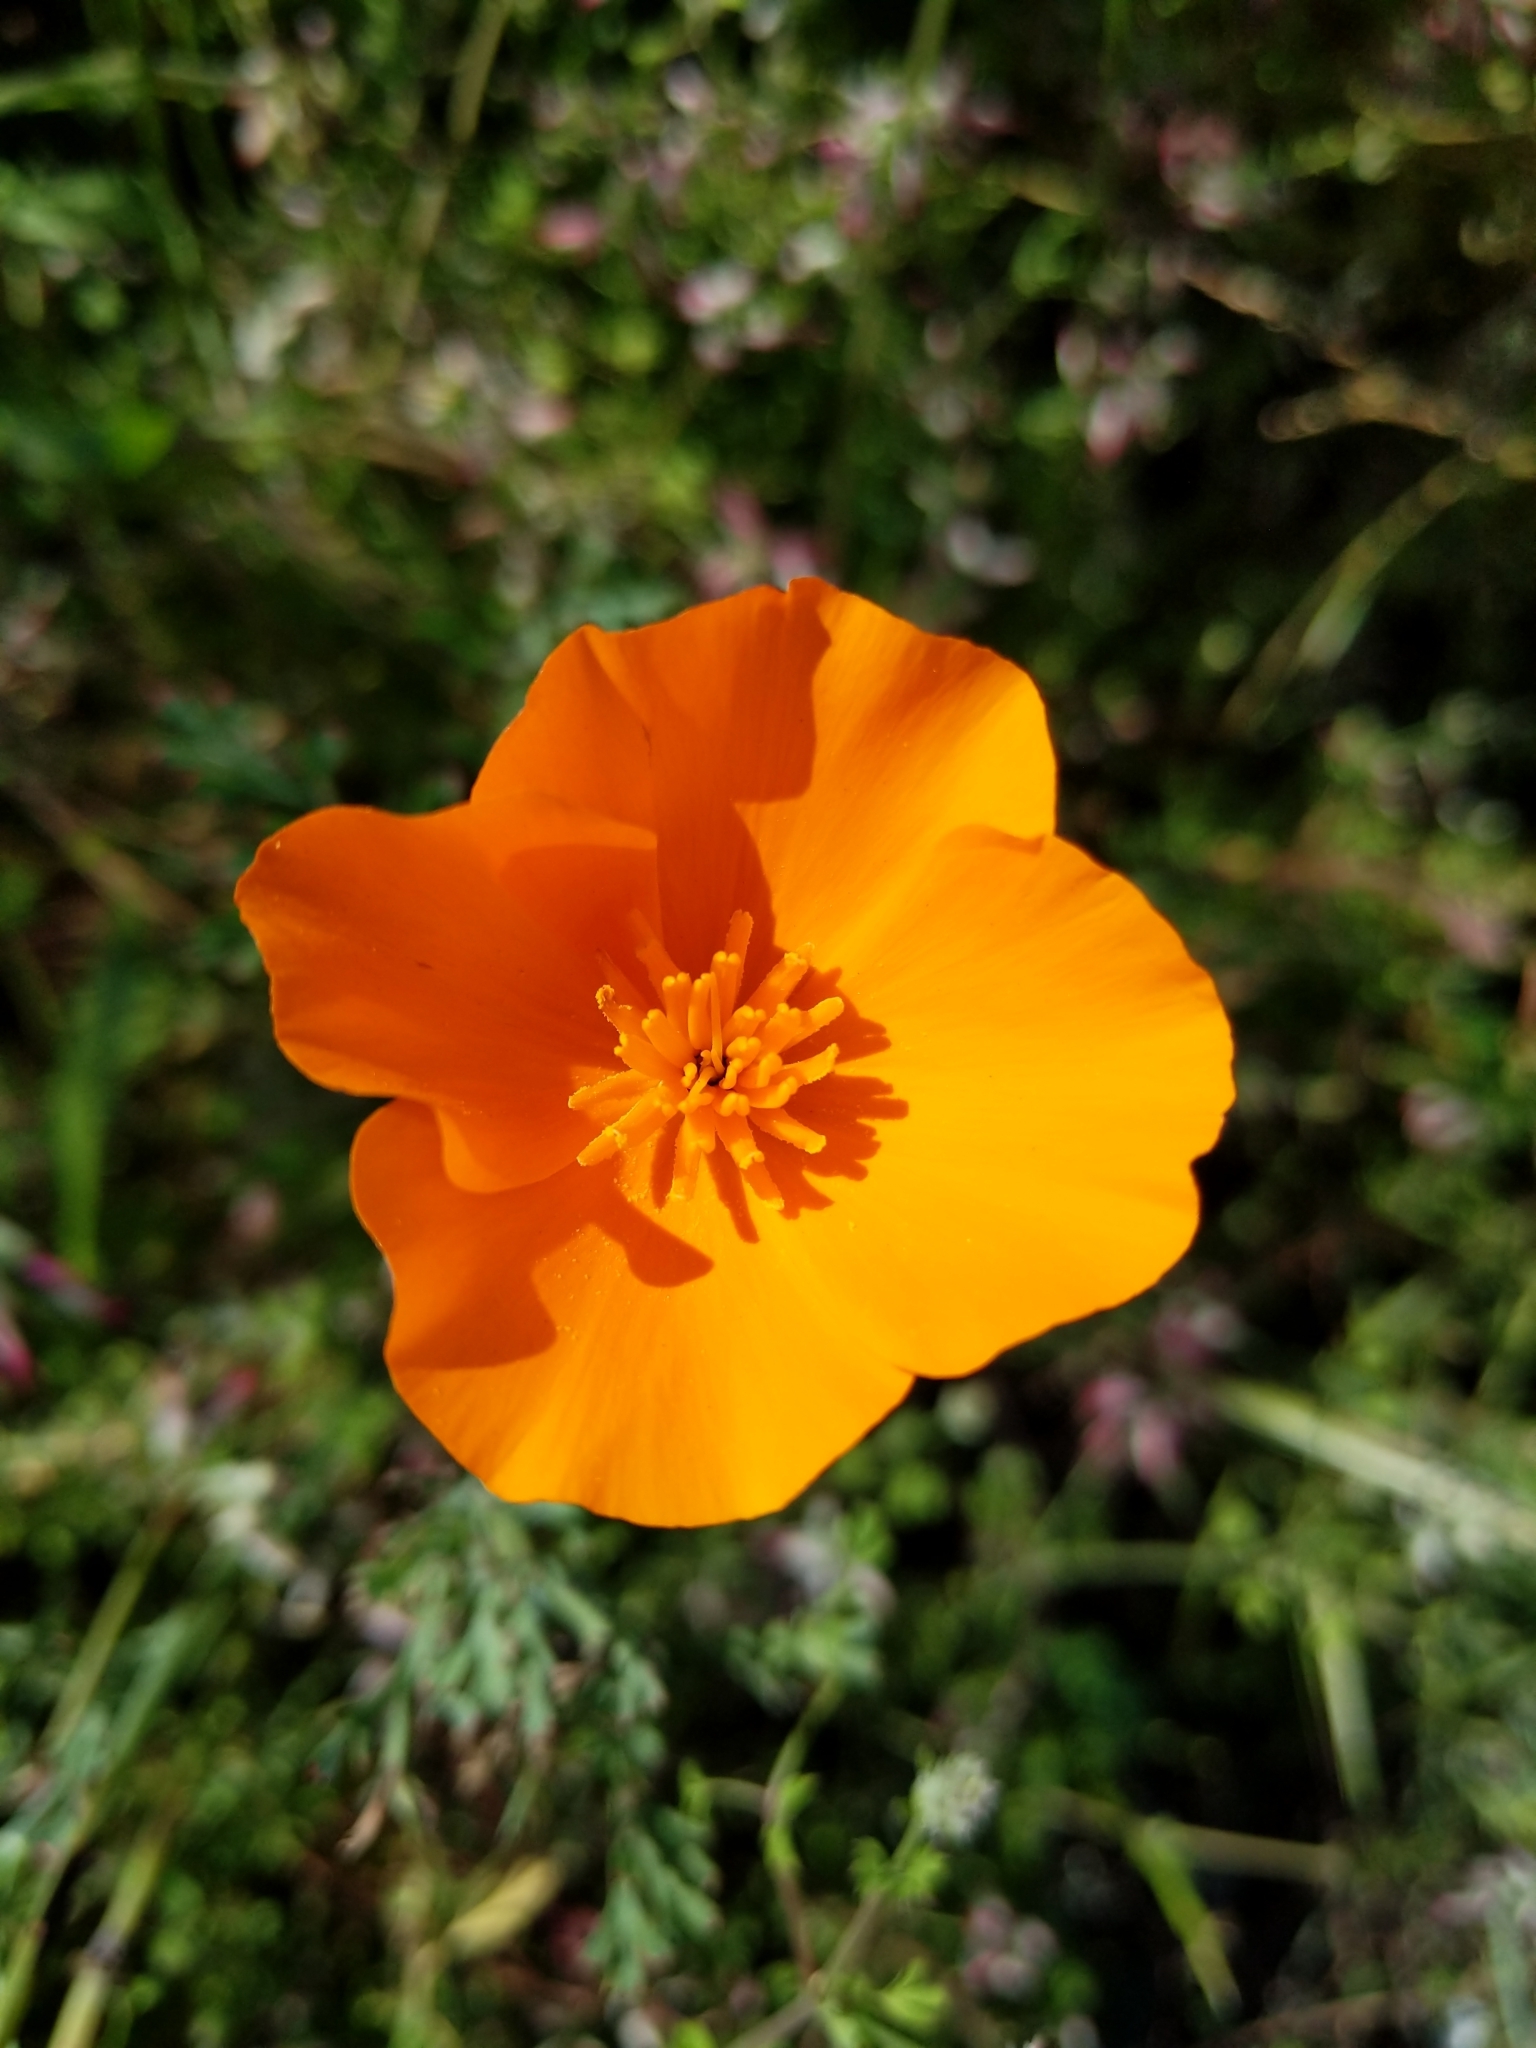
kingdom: Plantae
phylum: Tracheophyta
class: Magnoliopsida
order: Ranunculales
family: Papaveraceae
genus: Eschscholzia
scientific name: Eschscholzia californica
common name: California poppy
